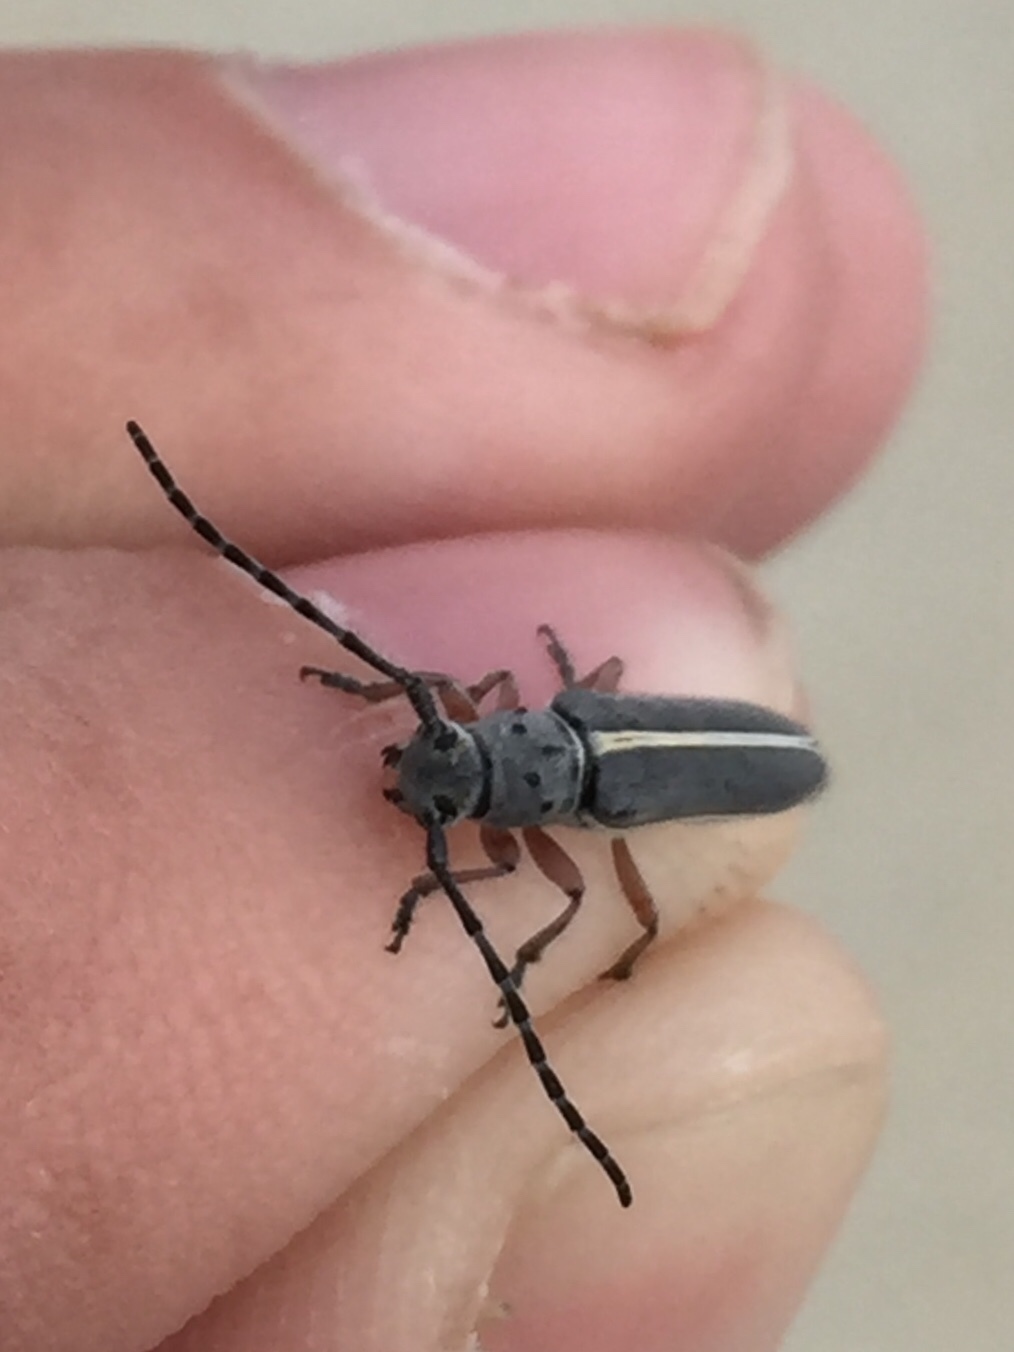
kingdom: Animalia
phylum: Arthropoda
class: Insecta
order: Coleoptera
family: Cerambycidae
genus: Mecas
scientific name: Mecas pergrata
